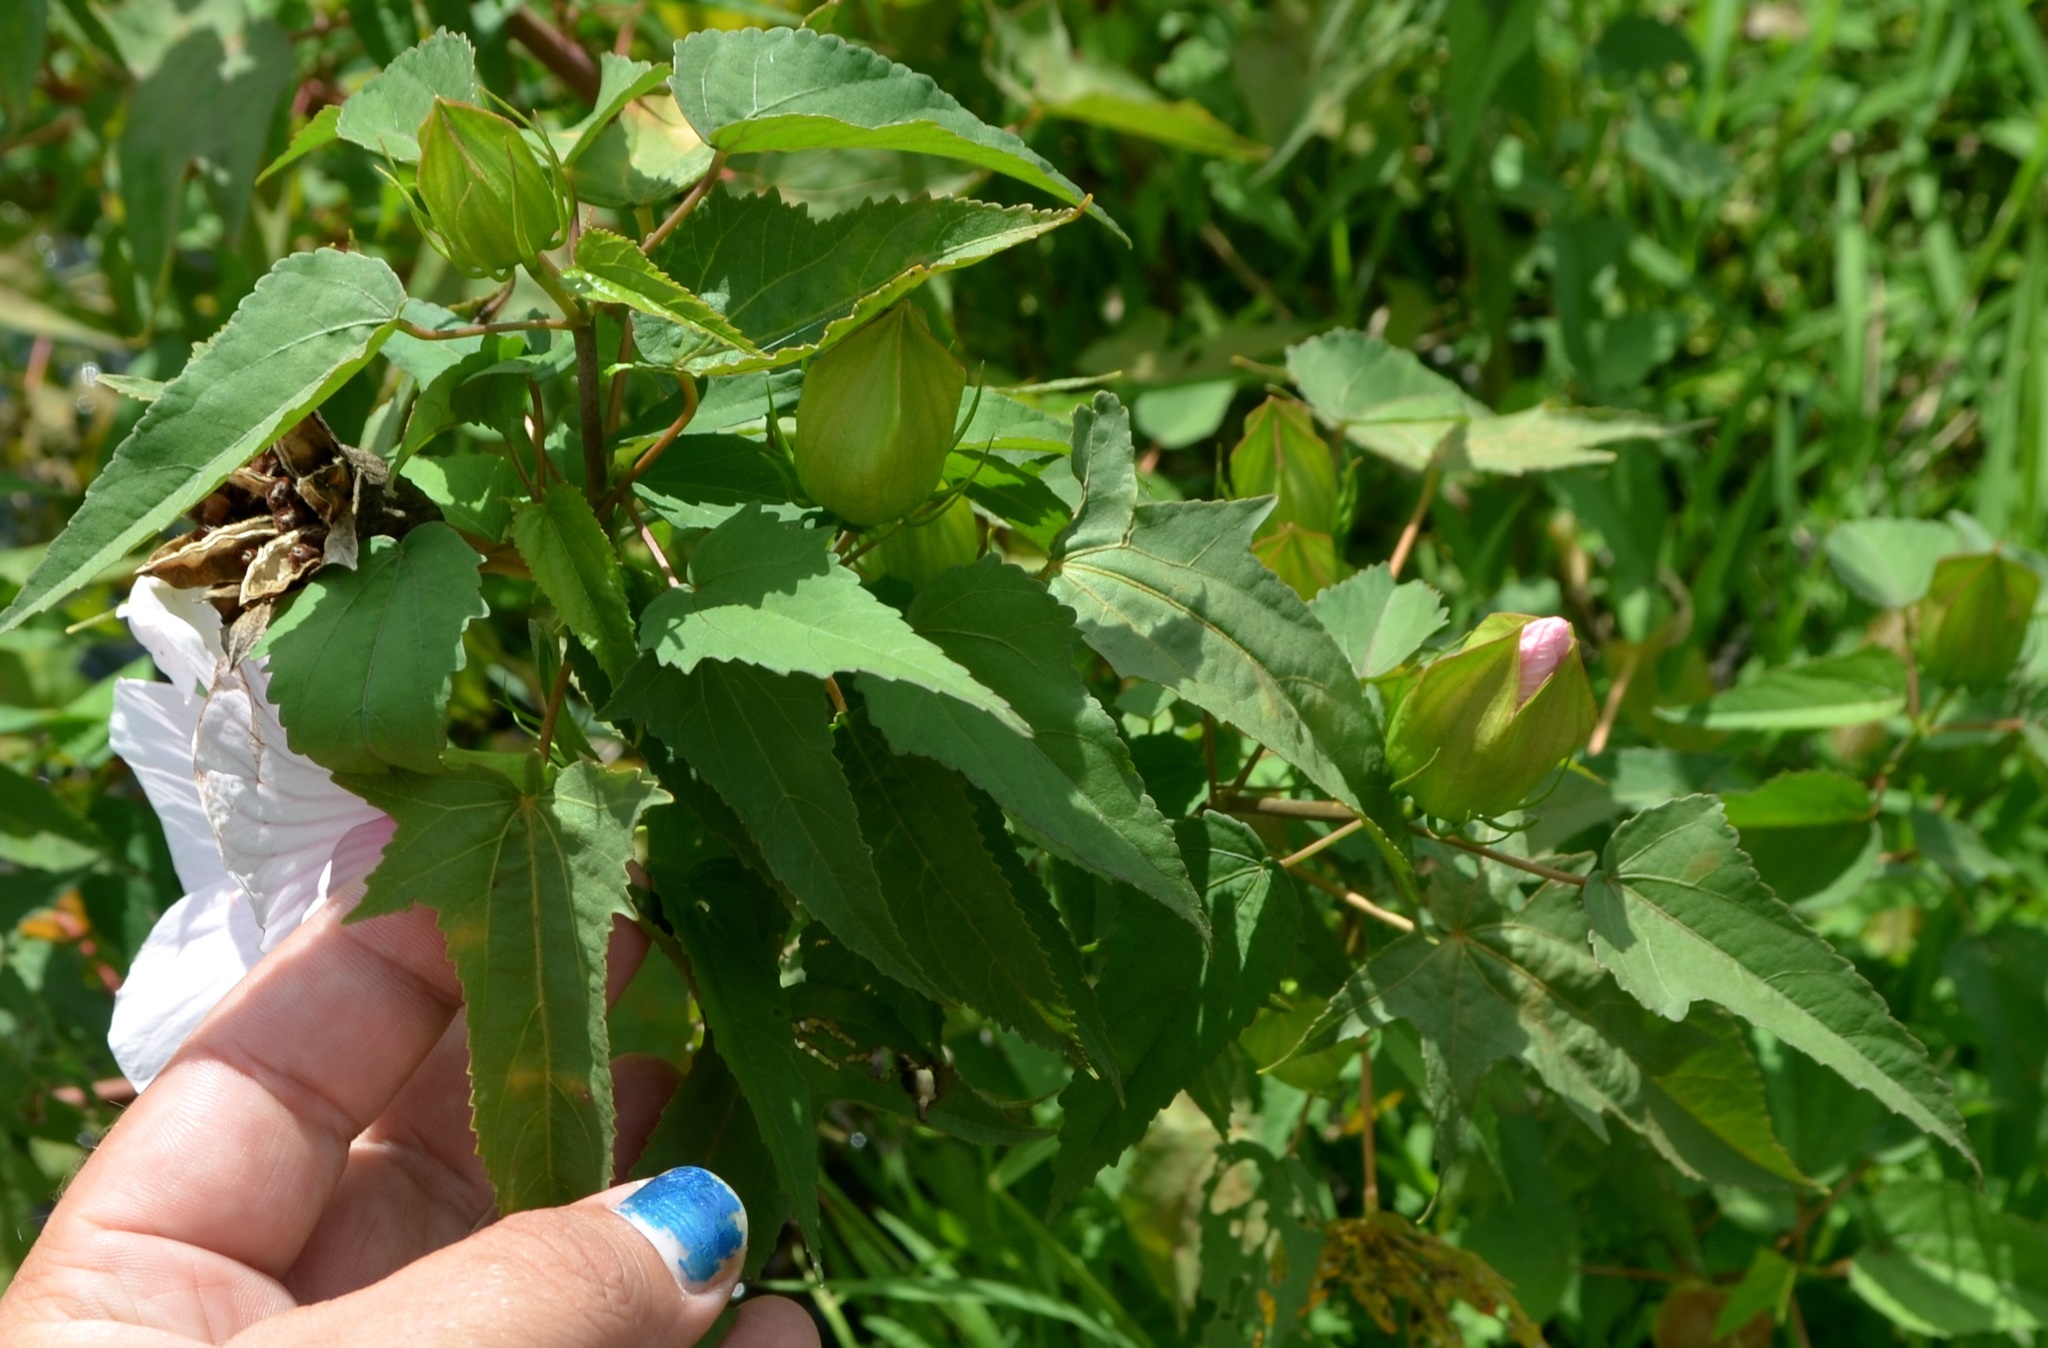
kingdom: Plantae
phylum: Tracheophyta
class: Magnoliopsida
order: Malvales
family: Malvaceae
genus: Hibiscus
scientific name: Hibiscus laevis
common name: Scarlet rose-mallow
